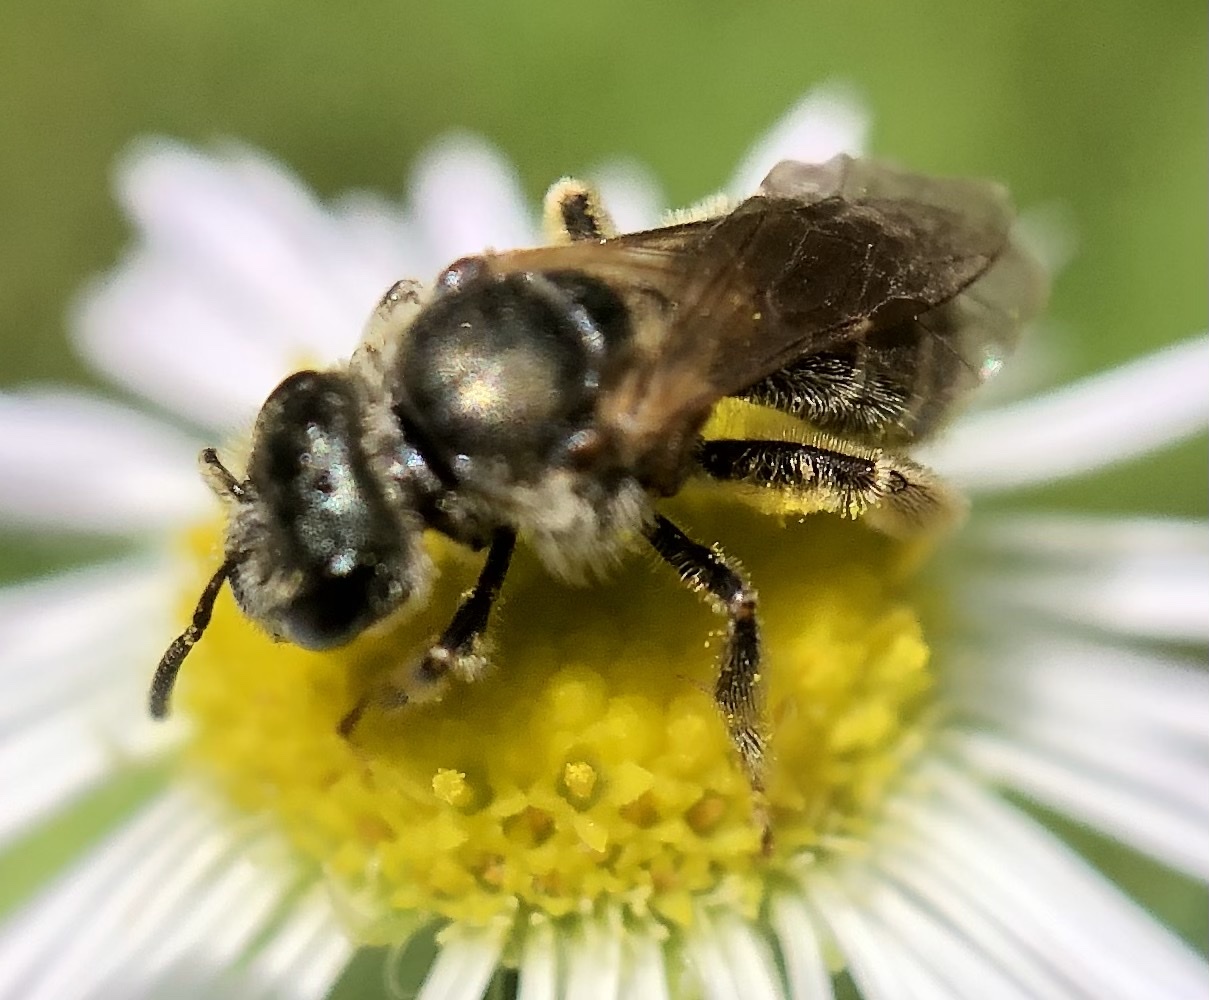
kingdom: Animalia
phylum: Arthropoda
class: Insecta
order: Hymenoptera
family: Halictidae
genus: Halictus
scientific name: Halictus confusus
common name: Southern bronze furrow bee
